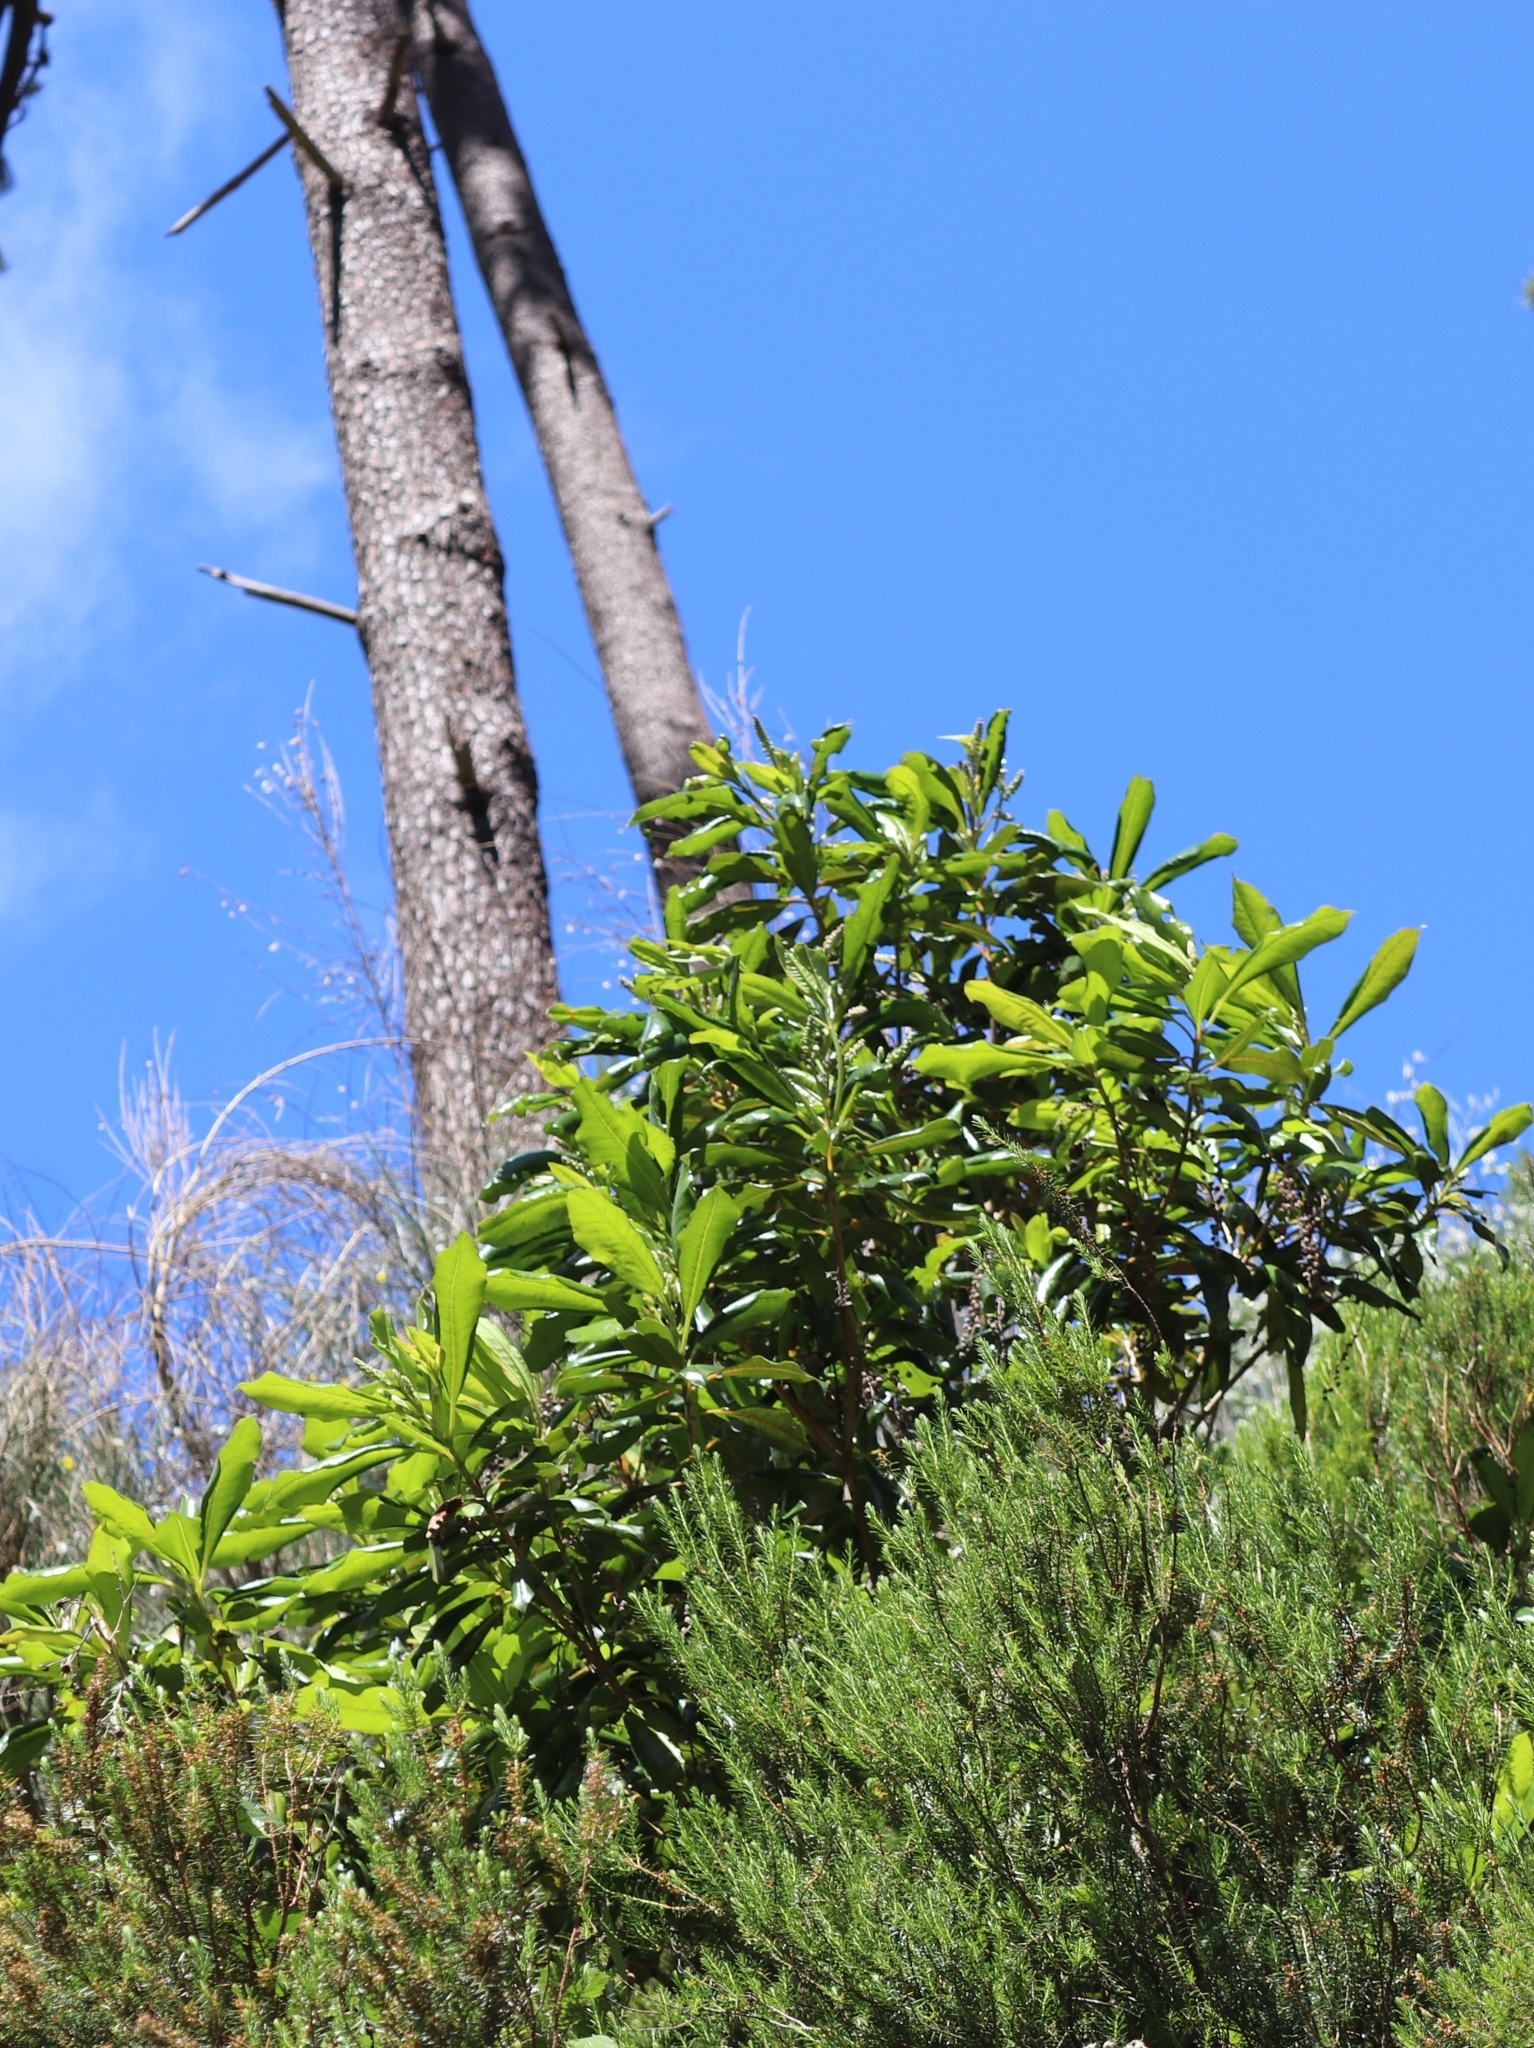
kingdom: Plantae
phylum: Tracheophyta
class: Magnoliopsida
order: Ericales
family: Clethraceae
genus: Clethra
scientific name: Clethra arborea
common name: Lily-of-the-valley-tree
